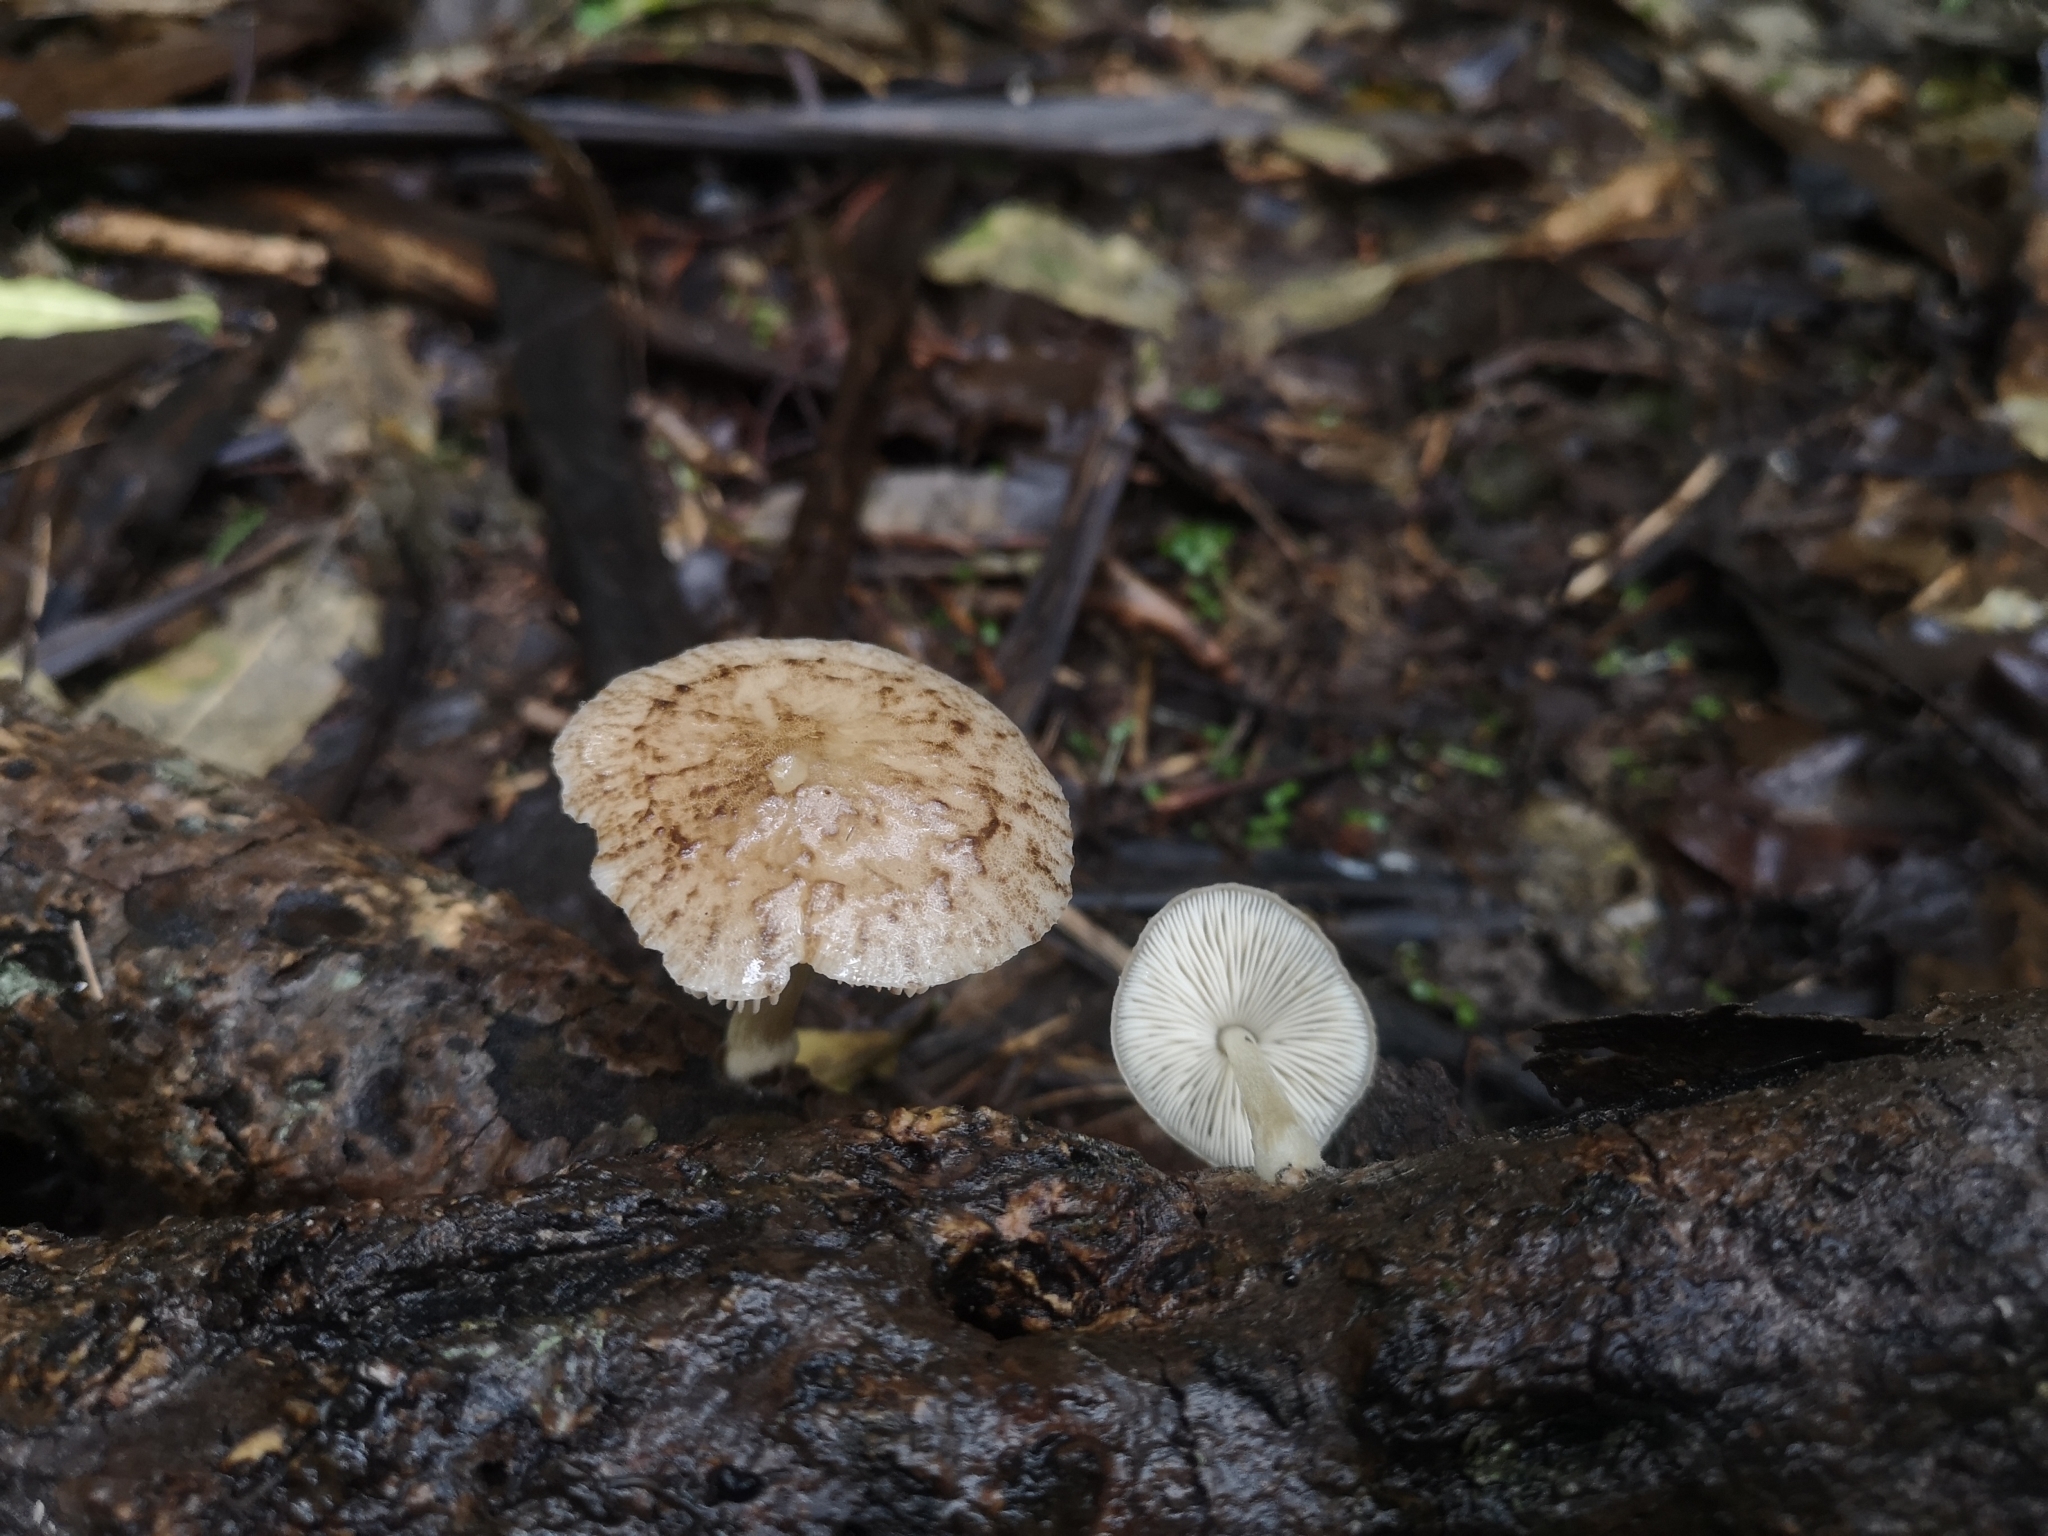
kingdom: Fungi
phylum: Basidiomycota
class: Agaricomycetes
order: Agaricales
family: Pluteaceae
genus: Pluteus
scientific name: Pluteus readiarum
